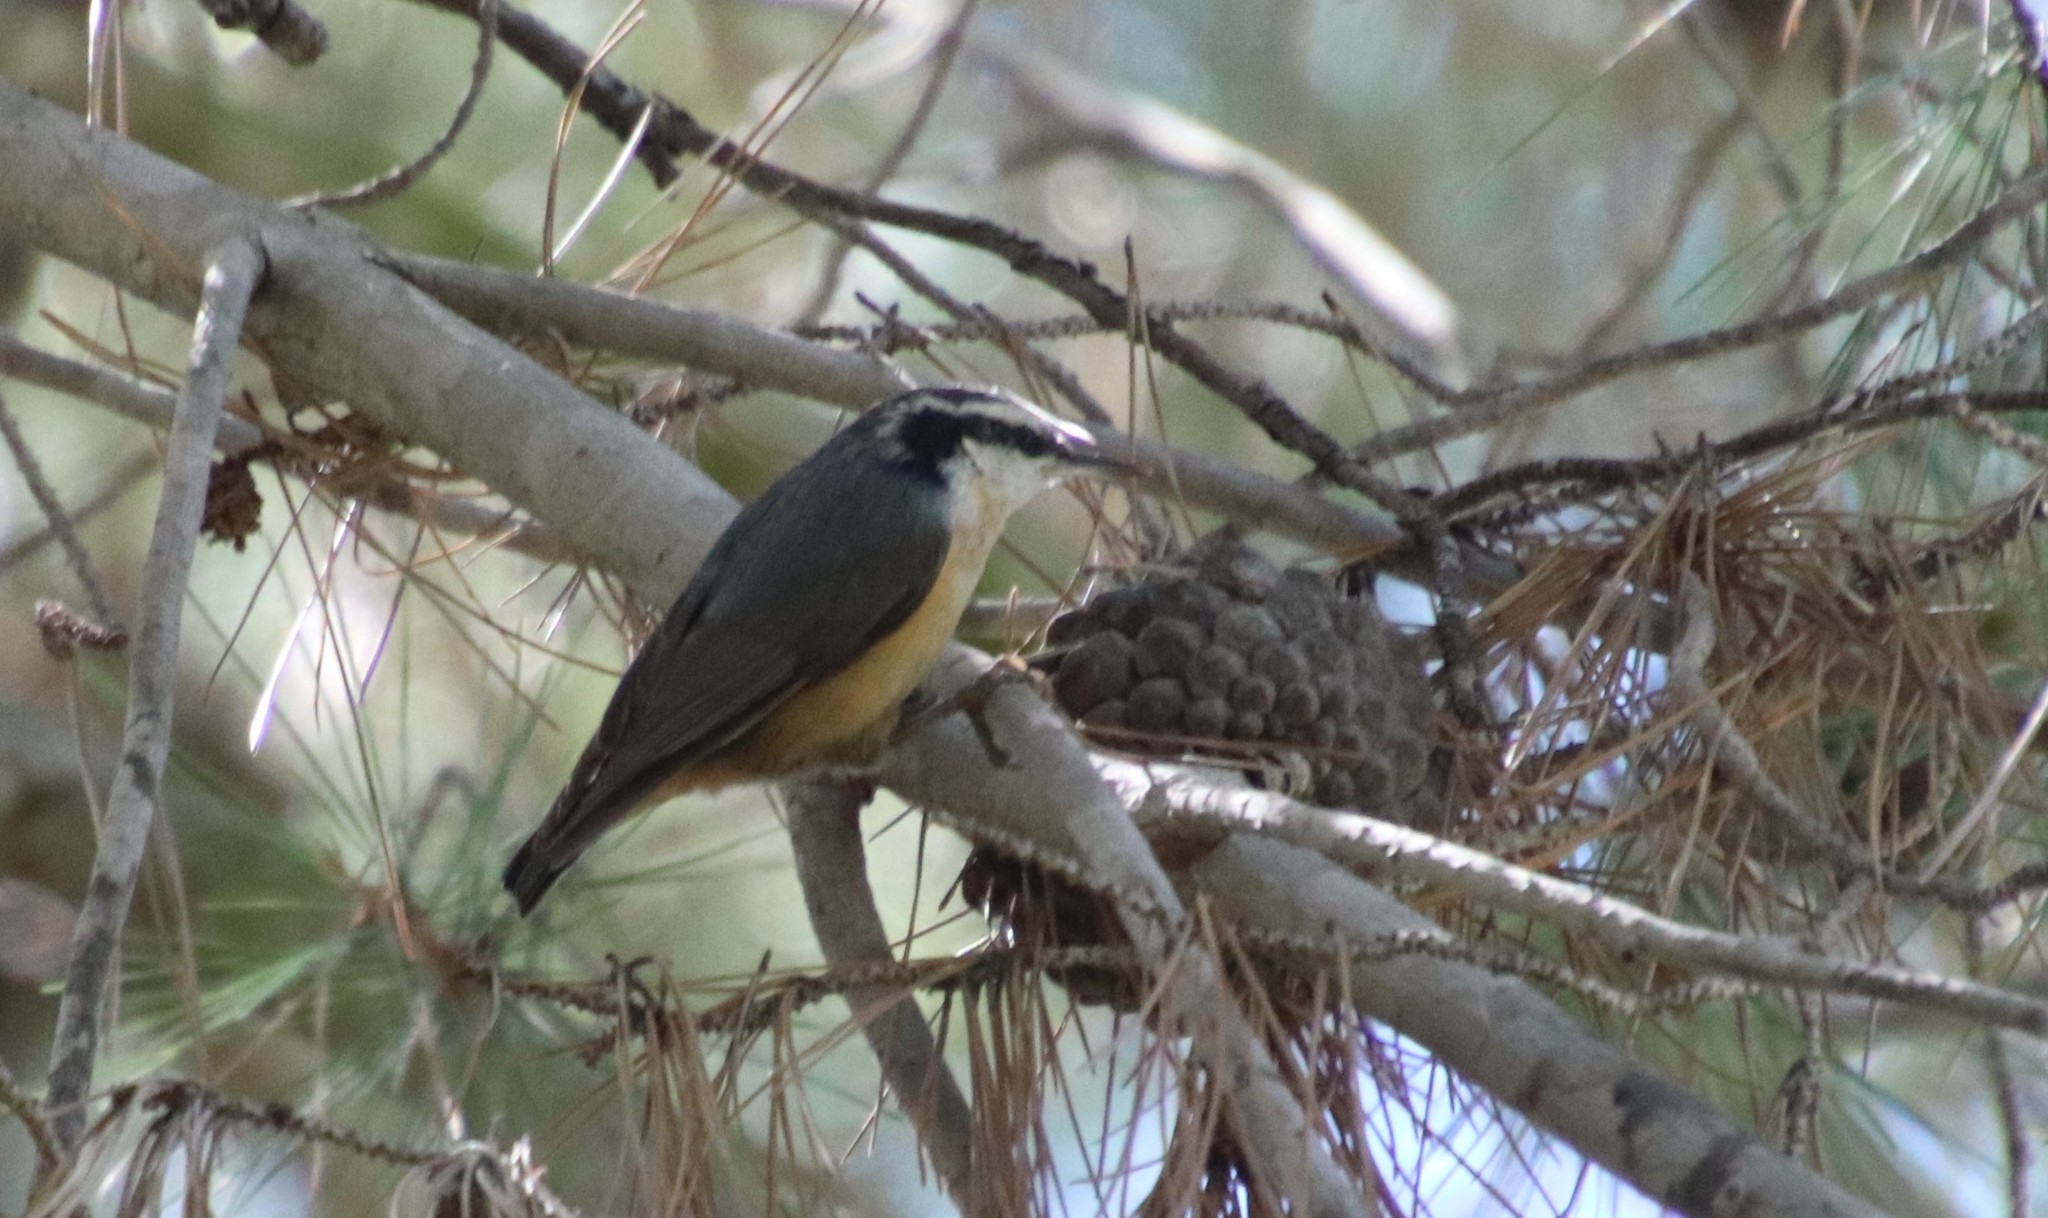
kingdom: Animalia
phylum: Chordata
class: Aves
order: Passeriformes
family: Sittidae
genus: Sitta
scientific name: Sitta canadensis
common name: Red-breasted nuthatch
